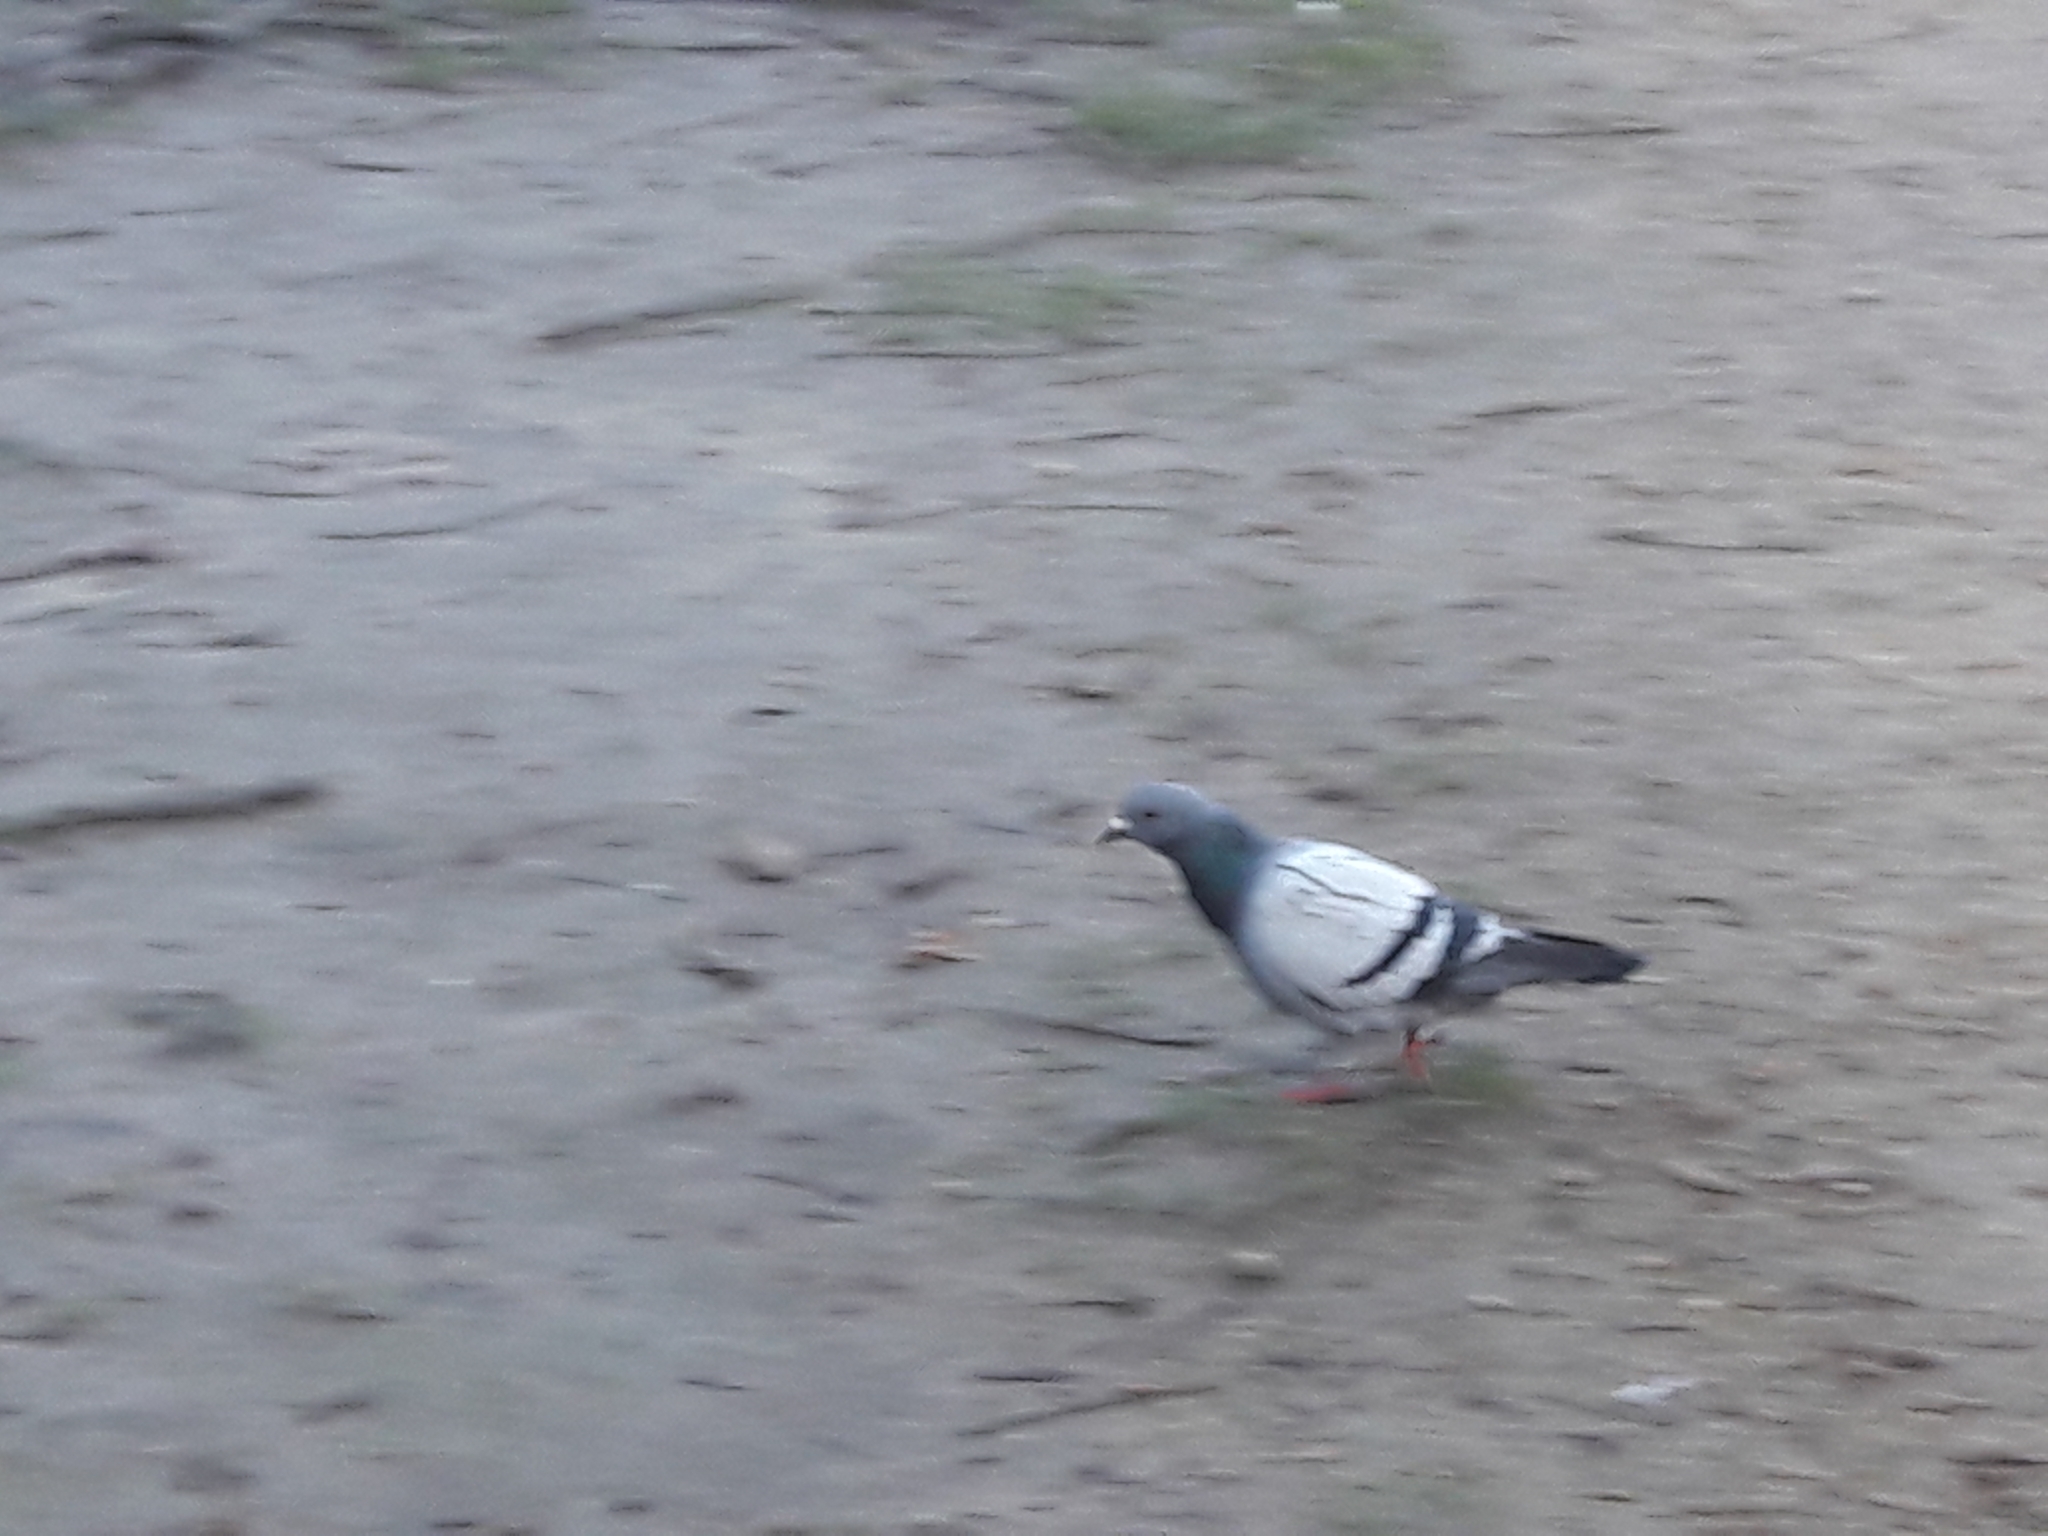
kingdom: Animalia
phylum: Chordata
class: Aves
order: Columbiformes
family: Columbidae
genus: Columba
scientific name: Columba livia
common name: Rock pigeon
